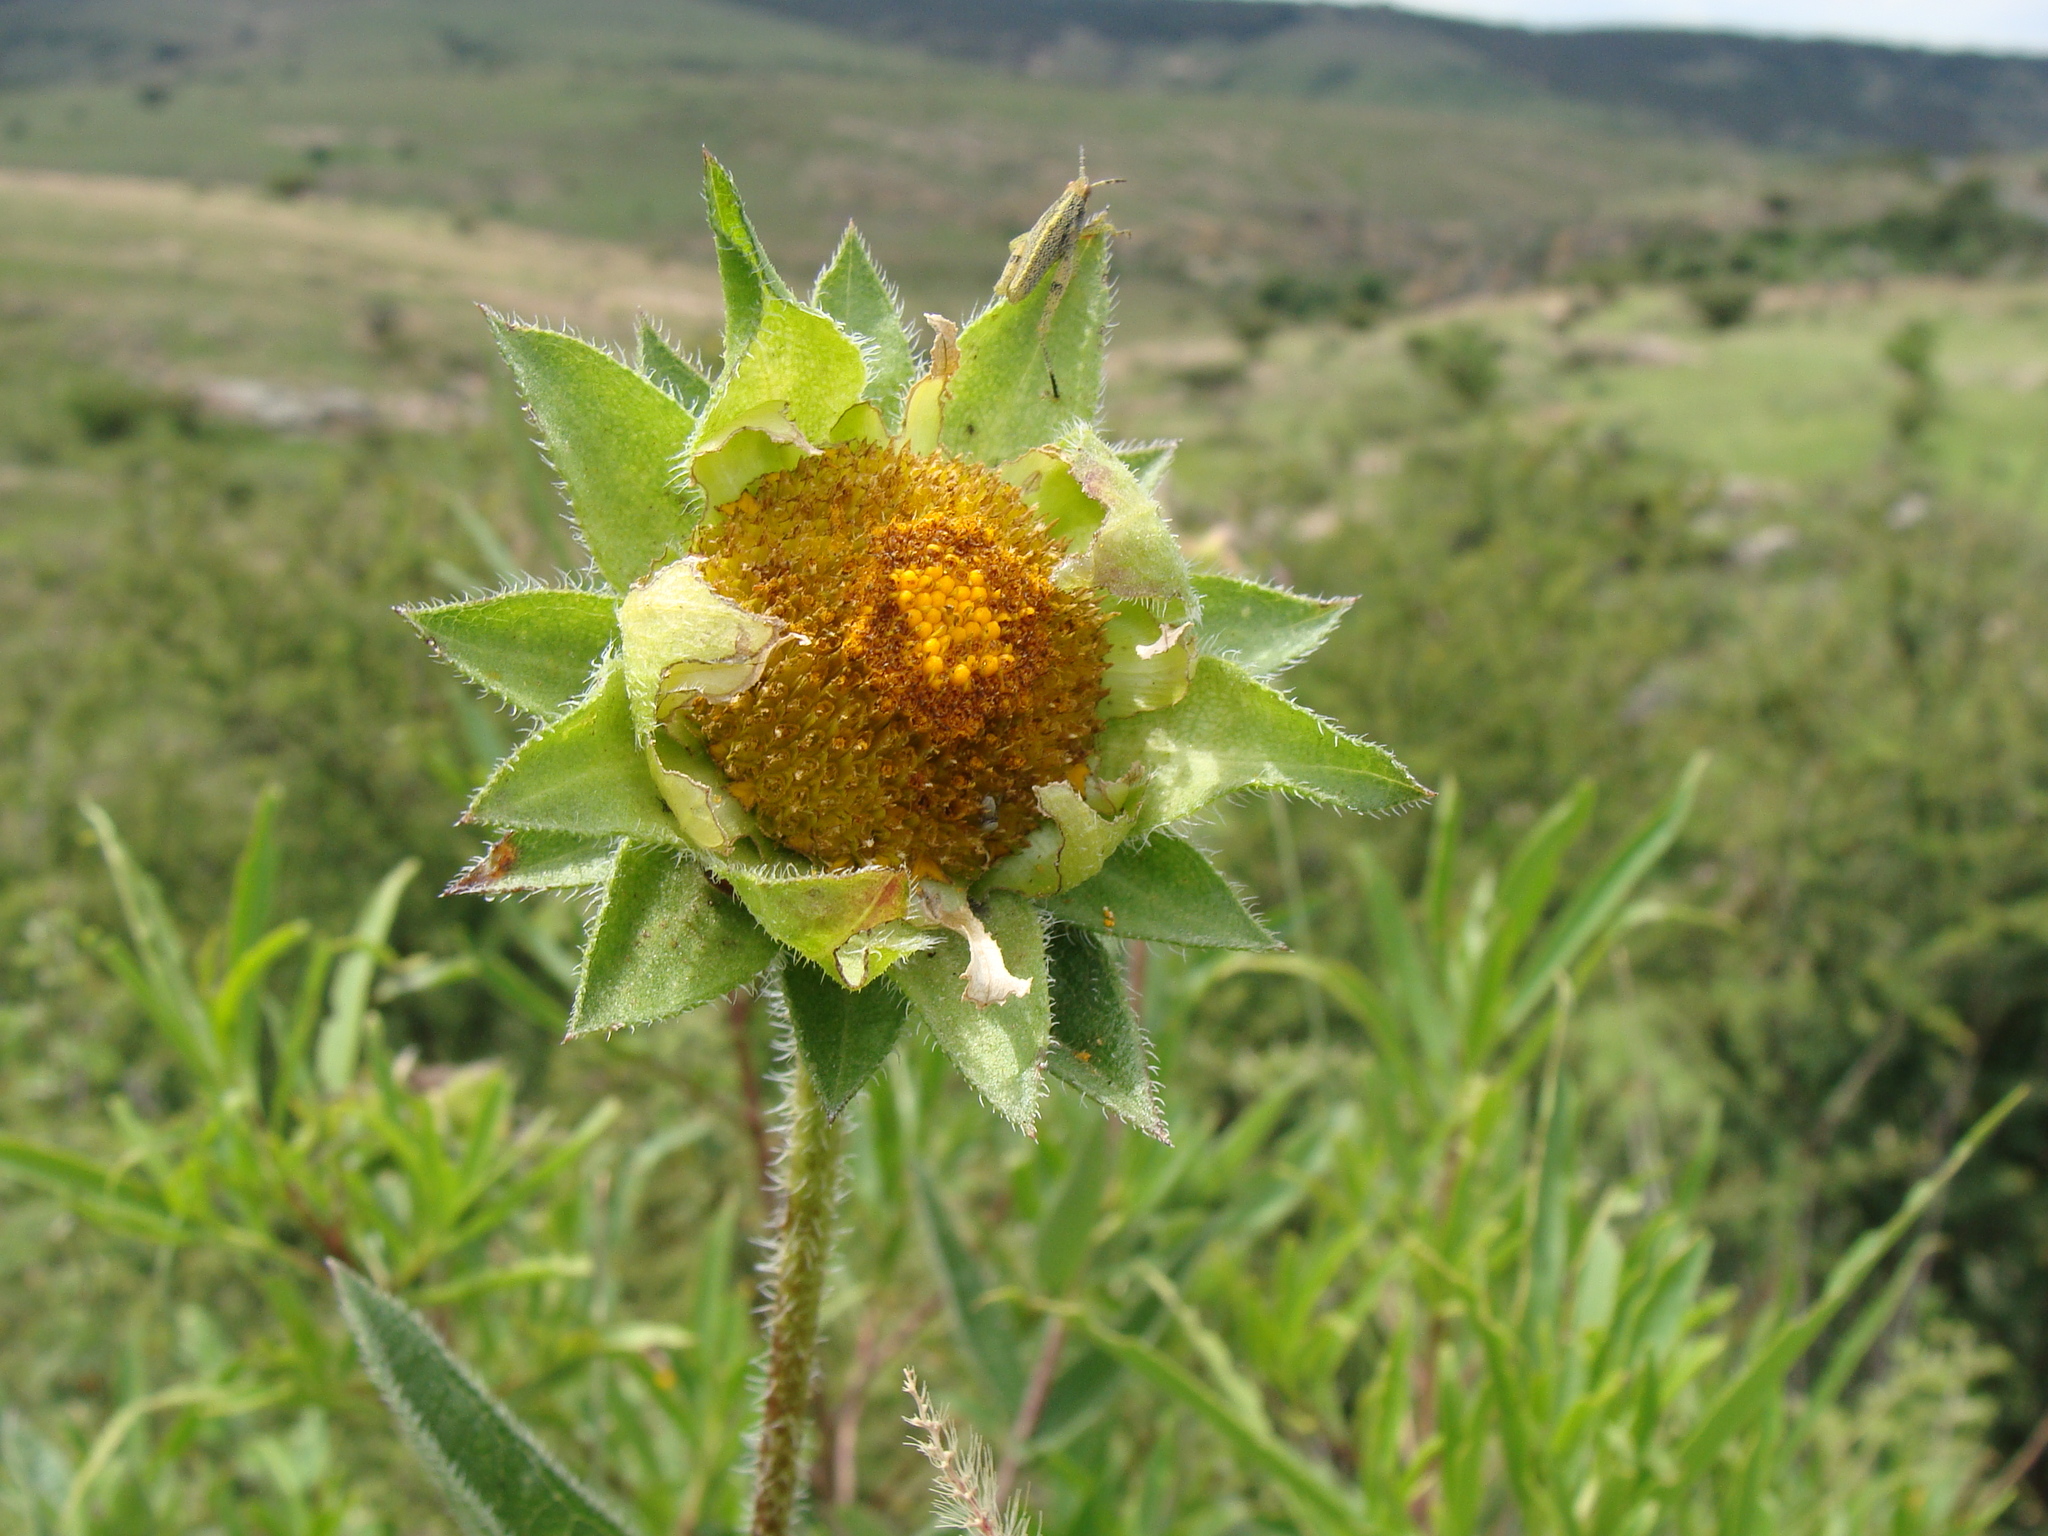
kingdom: Plantae
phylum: Tracheophyta
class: Magnoliopsida
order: Asterales
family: Asteraceae
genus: Aldama
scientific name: Aldama pachycephala
